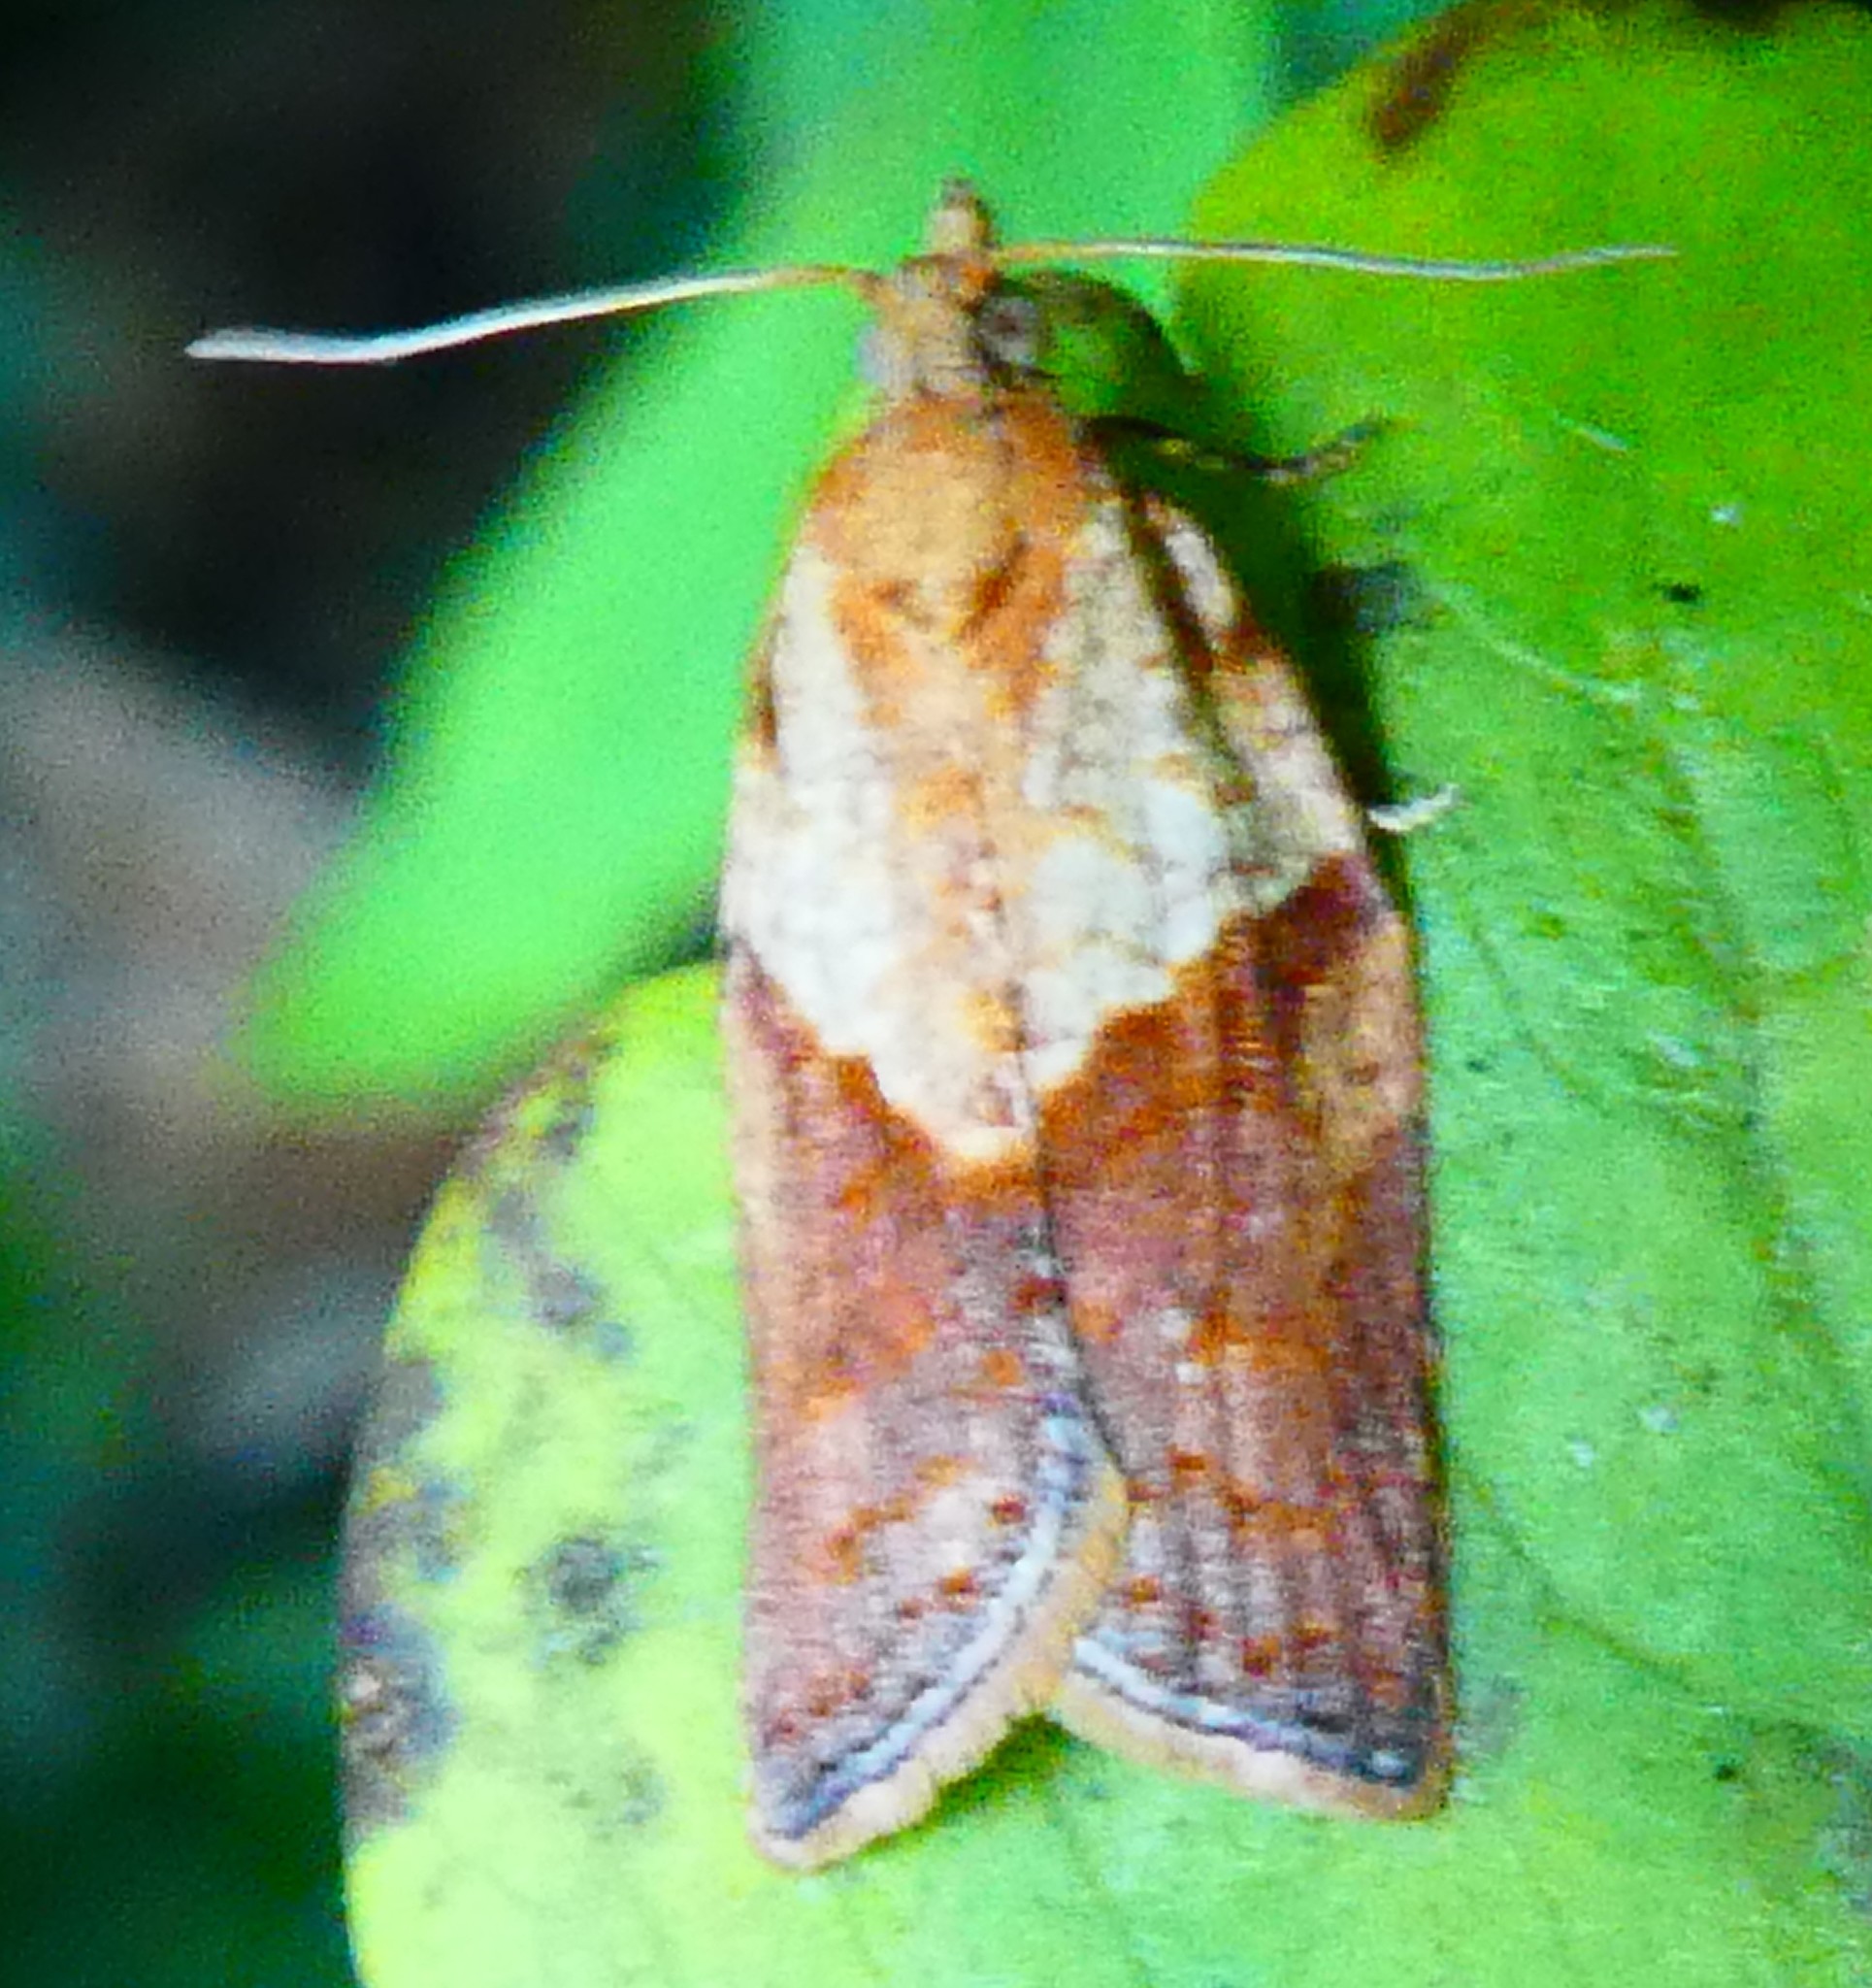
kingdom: Animalia
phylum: Arthropoda
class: Insecta
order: Lepidoptera
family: Tortricidae
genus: Epiphyas
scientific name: Epiphyas postvittana
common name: Light brown apple moth
